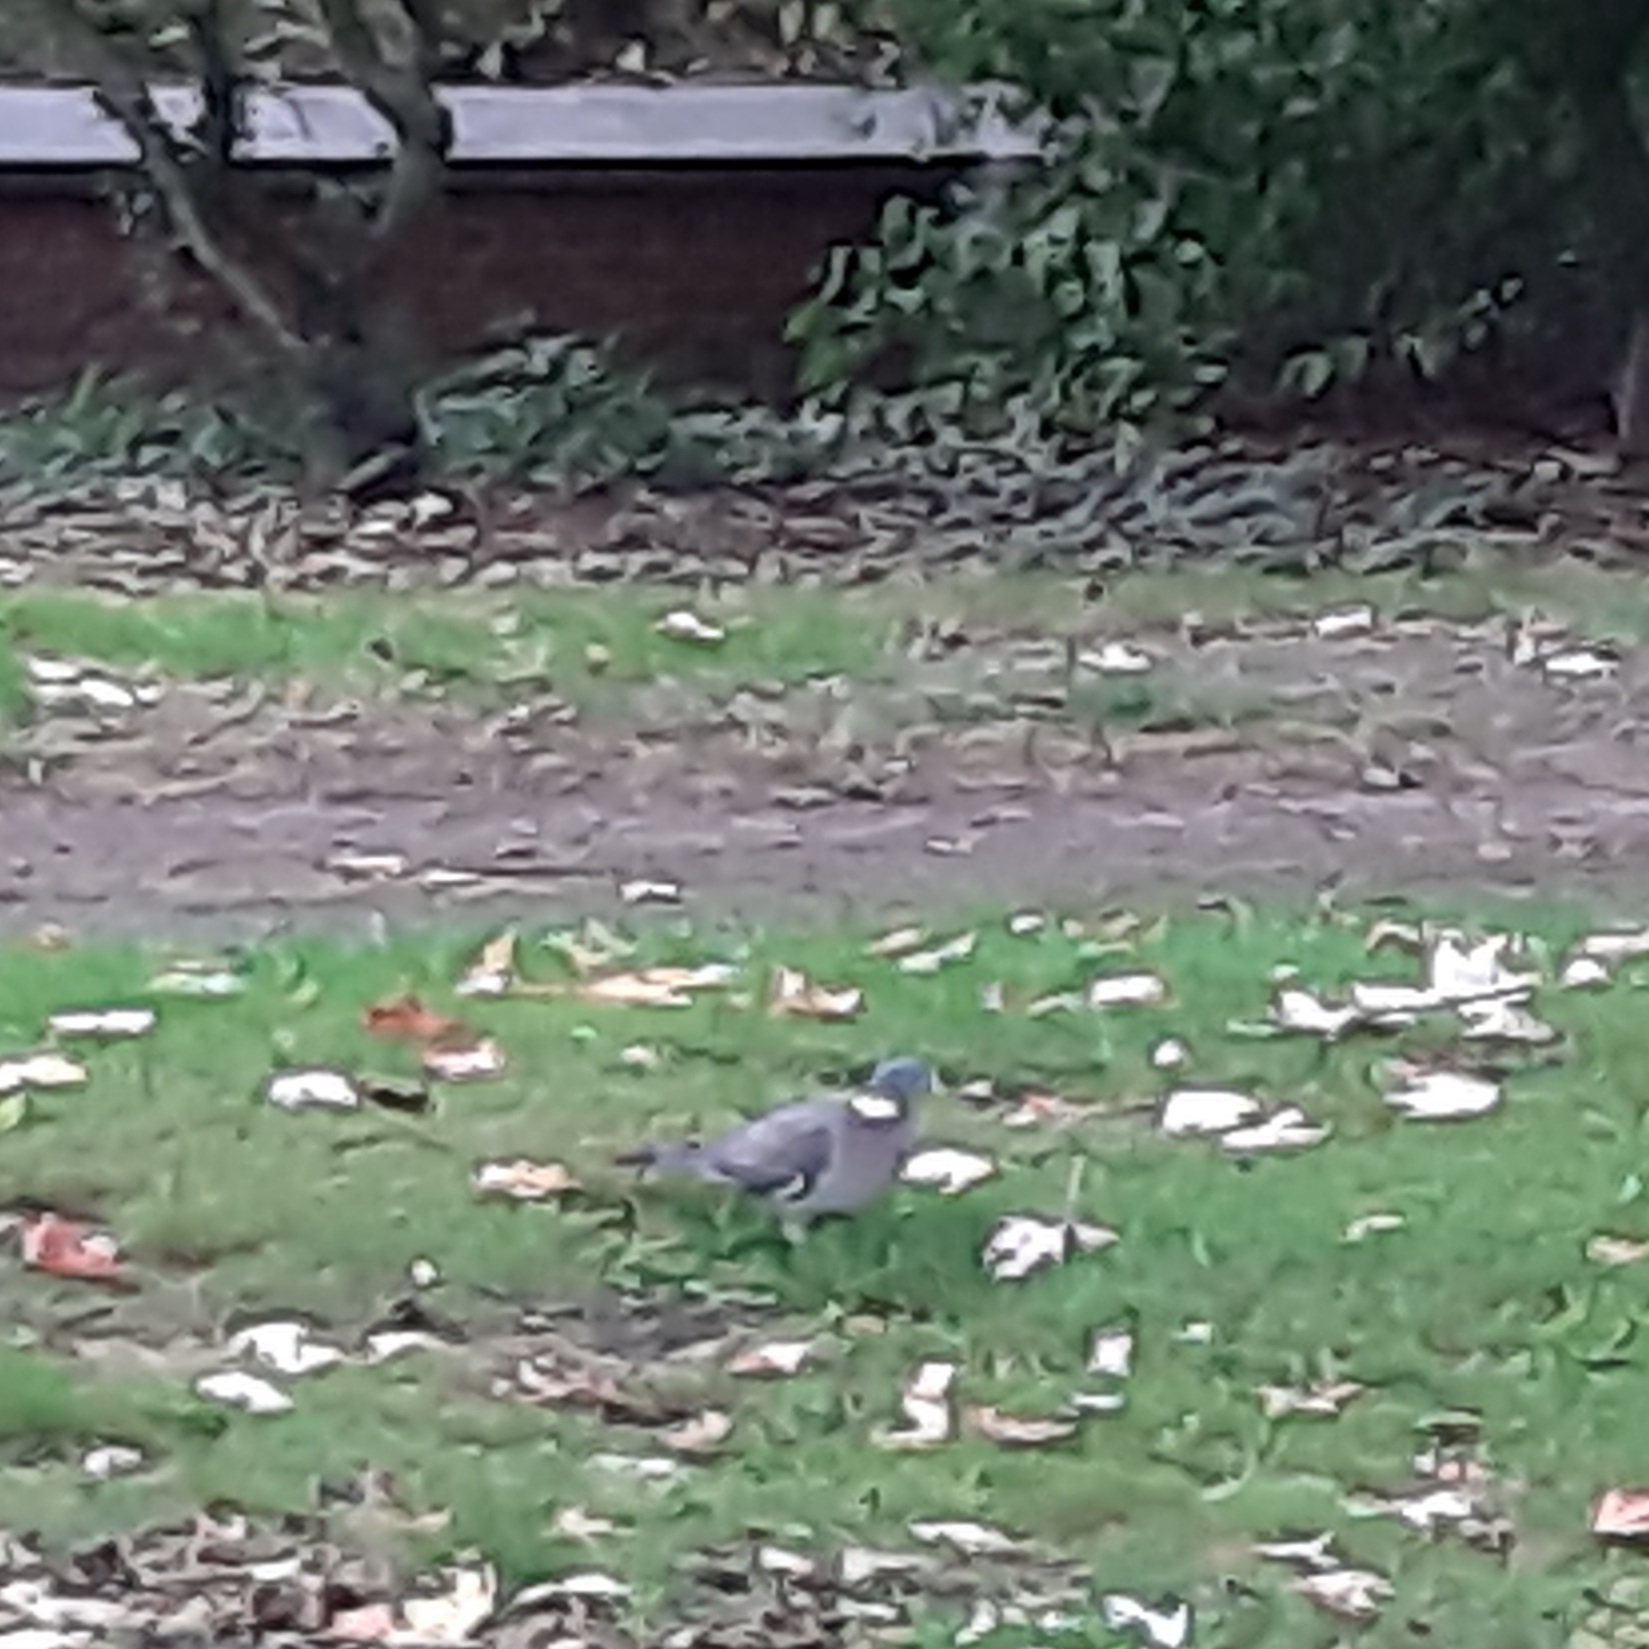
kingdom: Animalia
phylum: Chordata
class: Aves
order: Columbiformes
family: Columbidae
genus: Columba
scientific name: Columba palumbus
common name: Common wood pigeon
